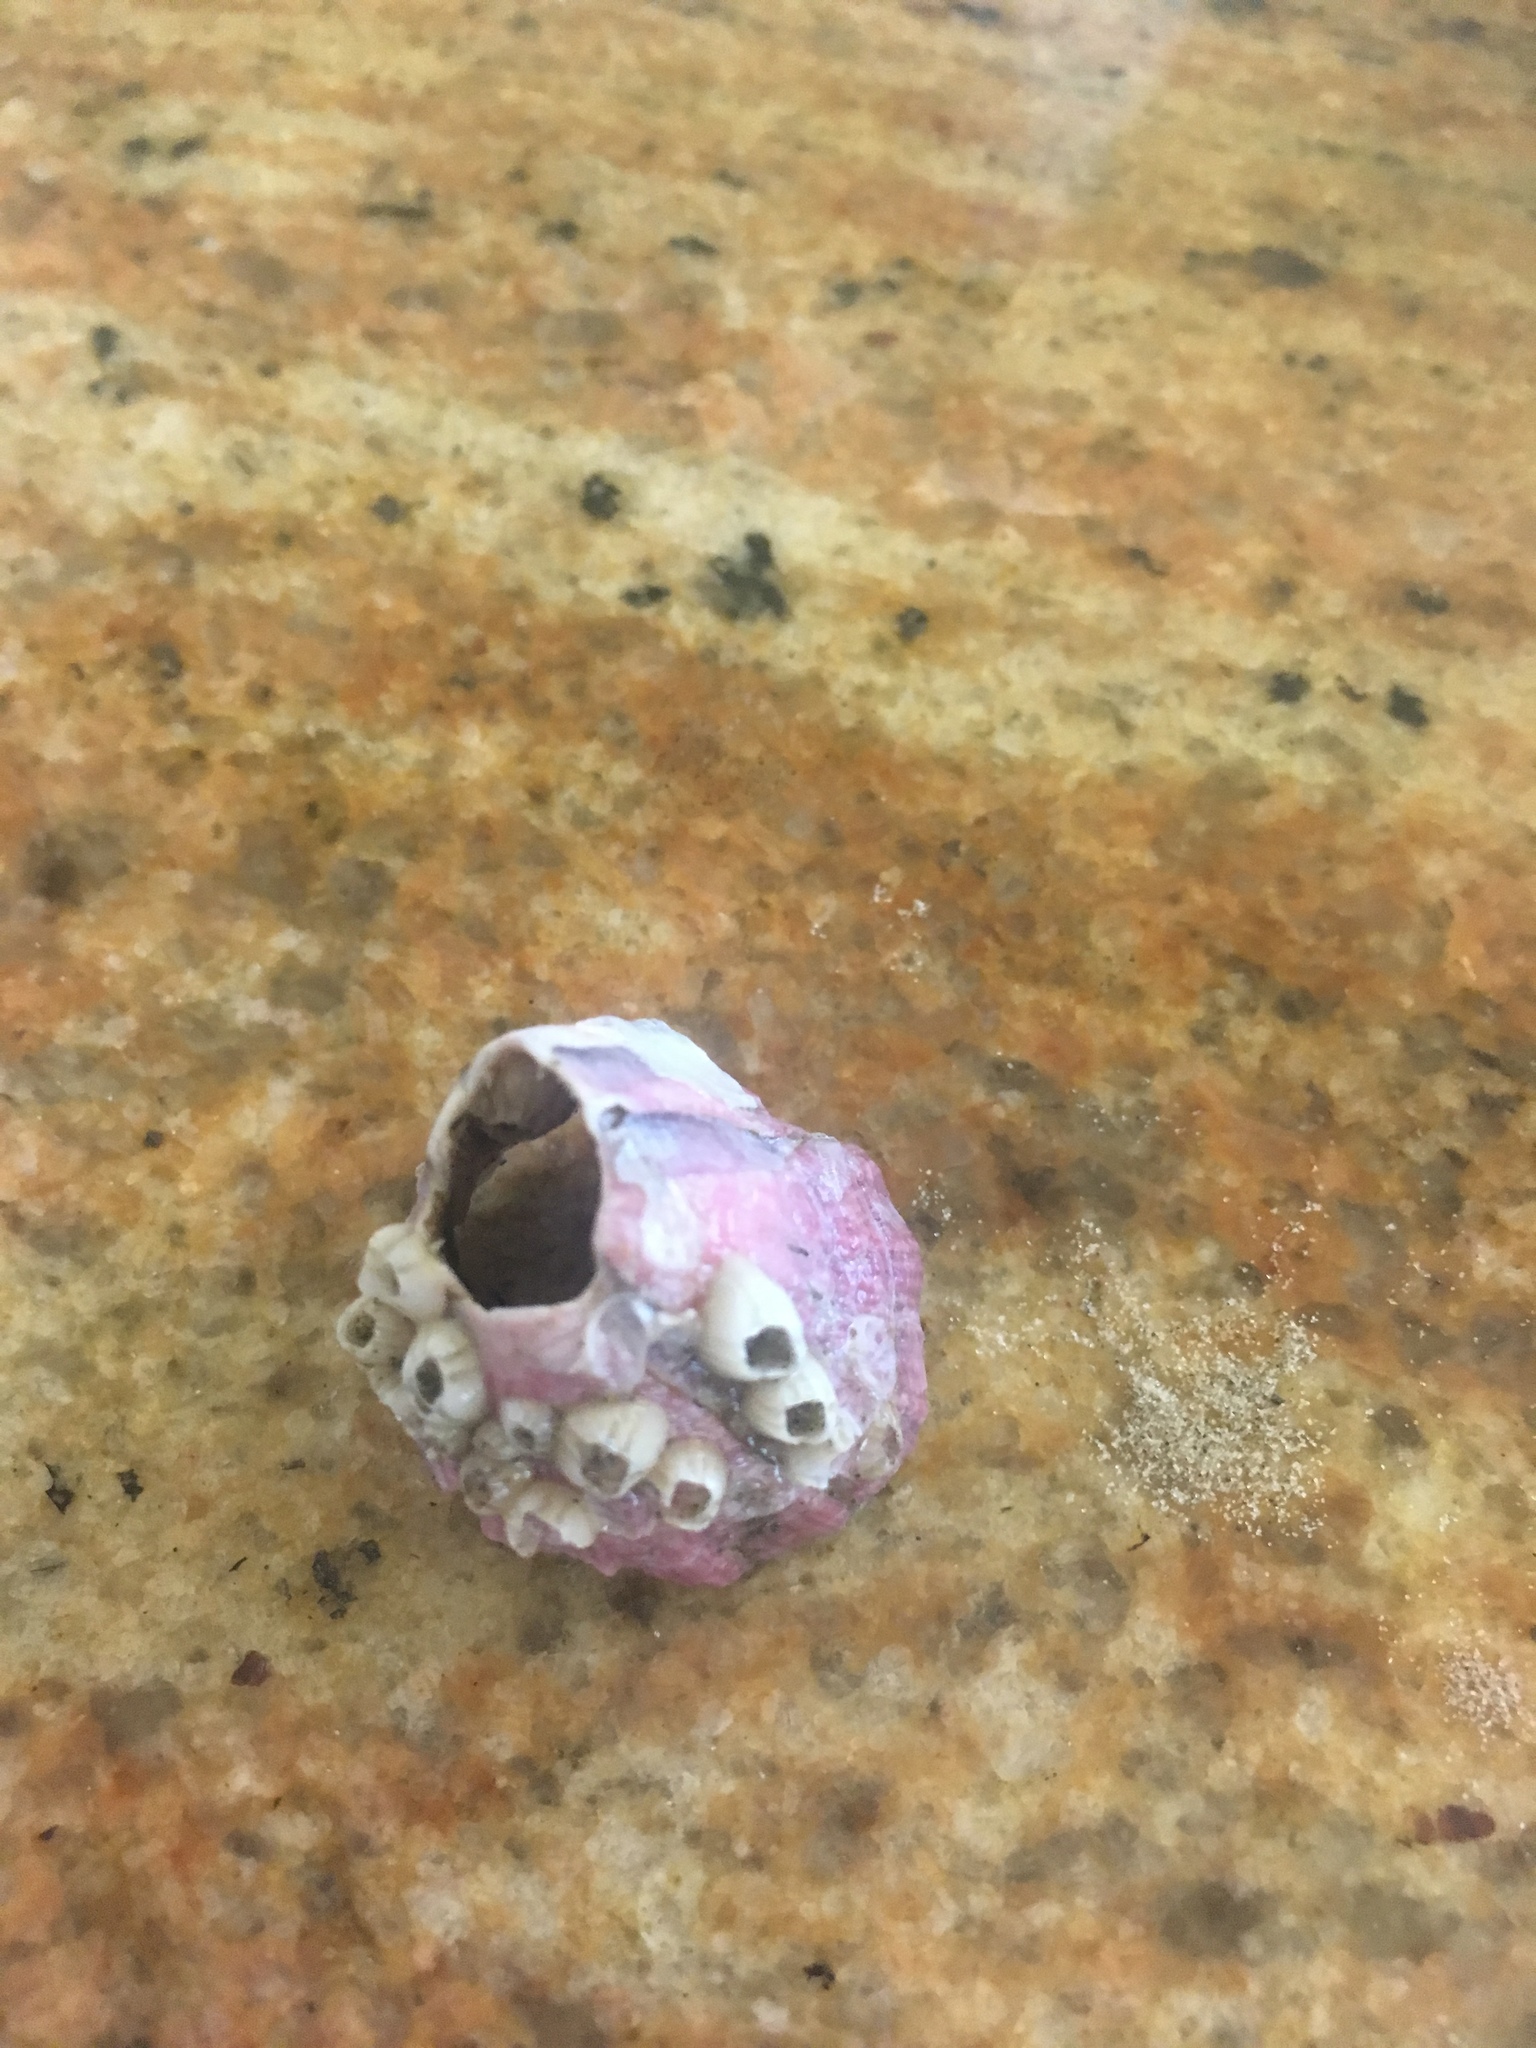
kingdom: Animalia
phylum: Arthropoda
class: Maxillopoda
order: Sessilia
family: Balanidae
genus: Megabalanus
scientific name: Megabalanus tintinnabulum
